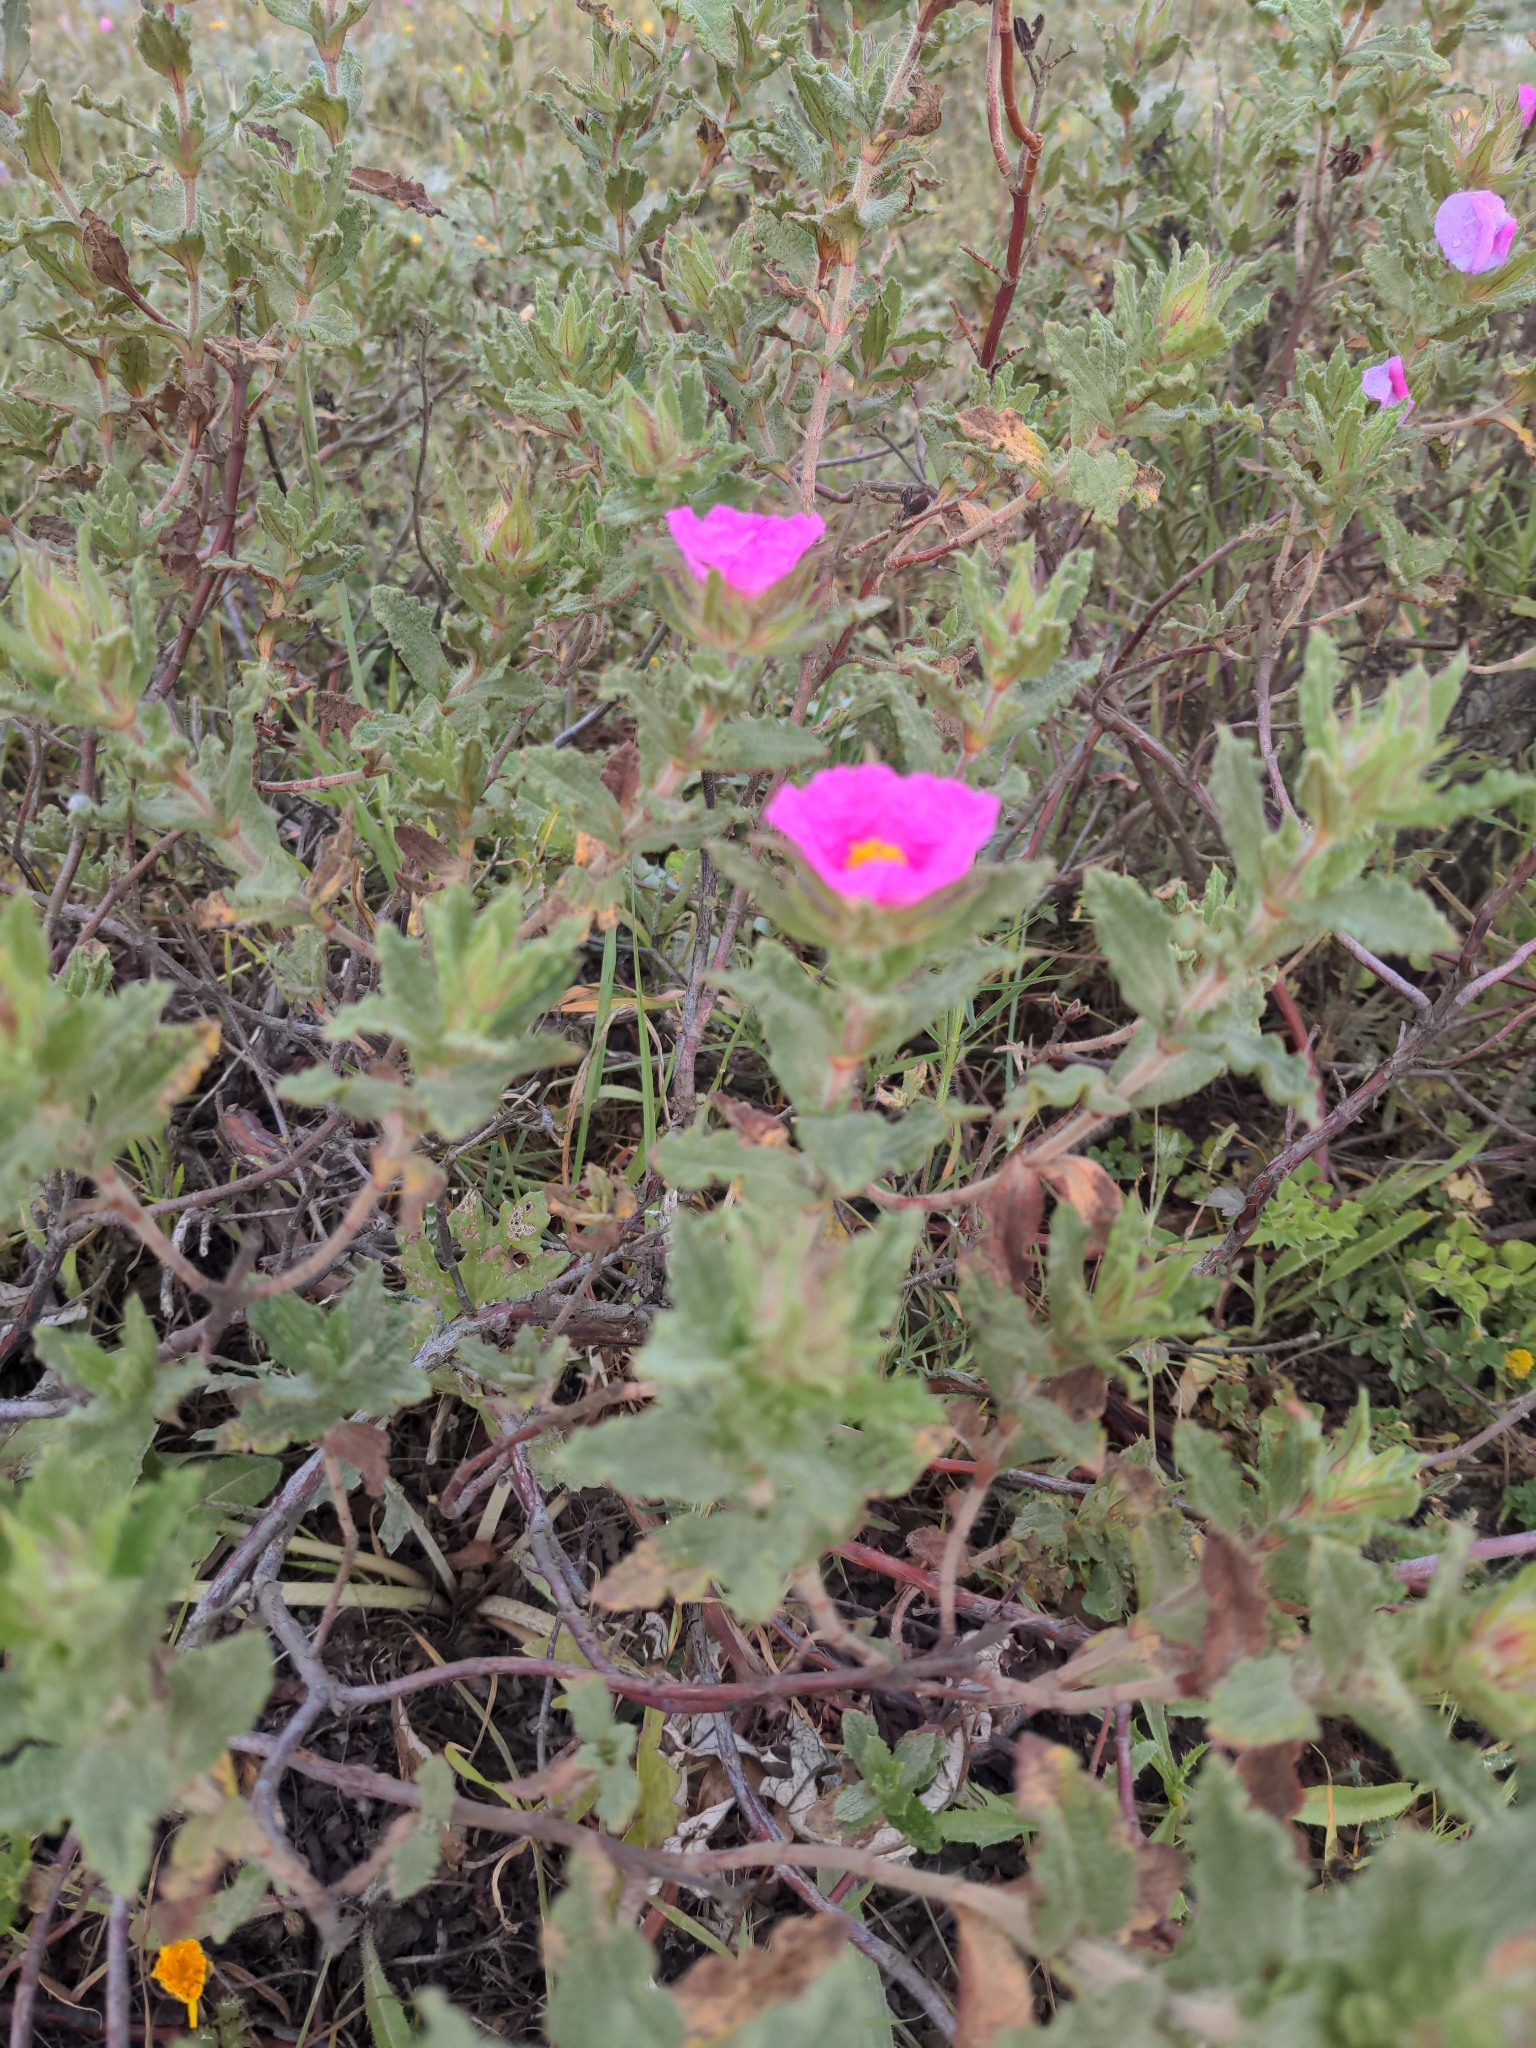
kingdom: Plantae
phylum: Tracheophyta
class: Magnoliopsida
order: Malvales
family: Cistaceae
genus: Cistus
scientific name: Cistus crispus
